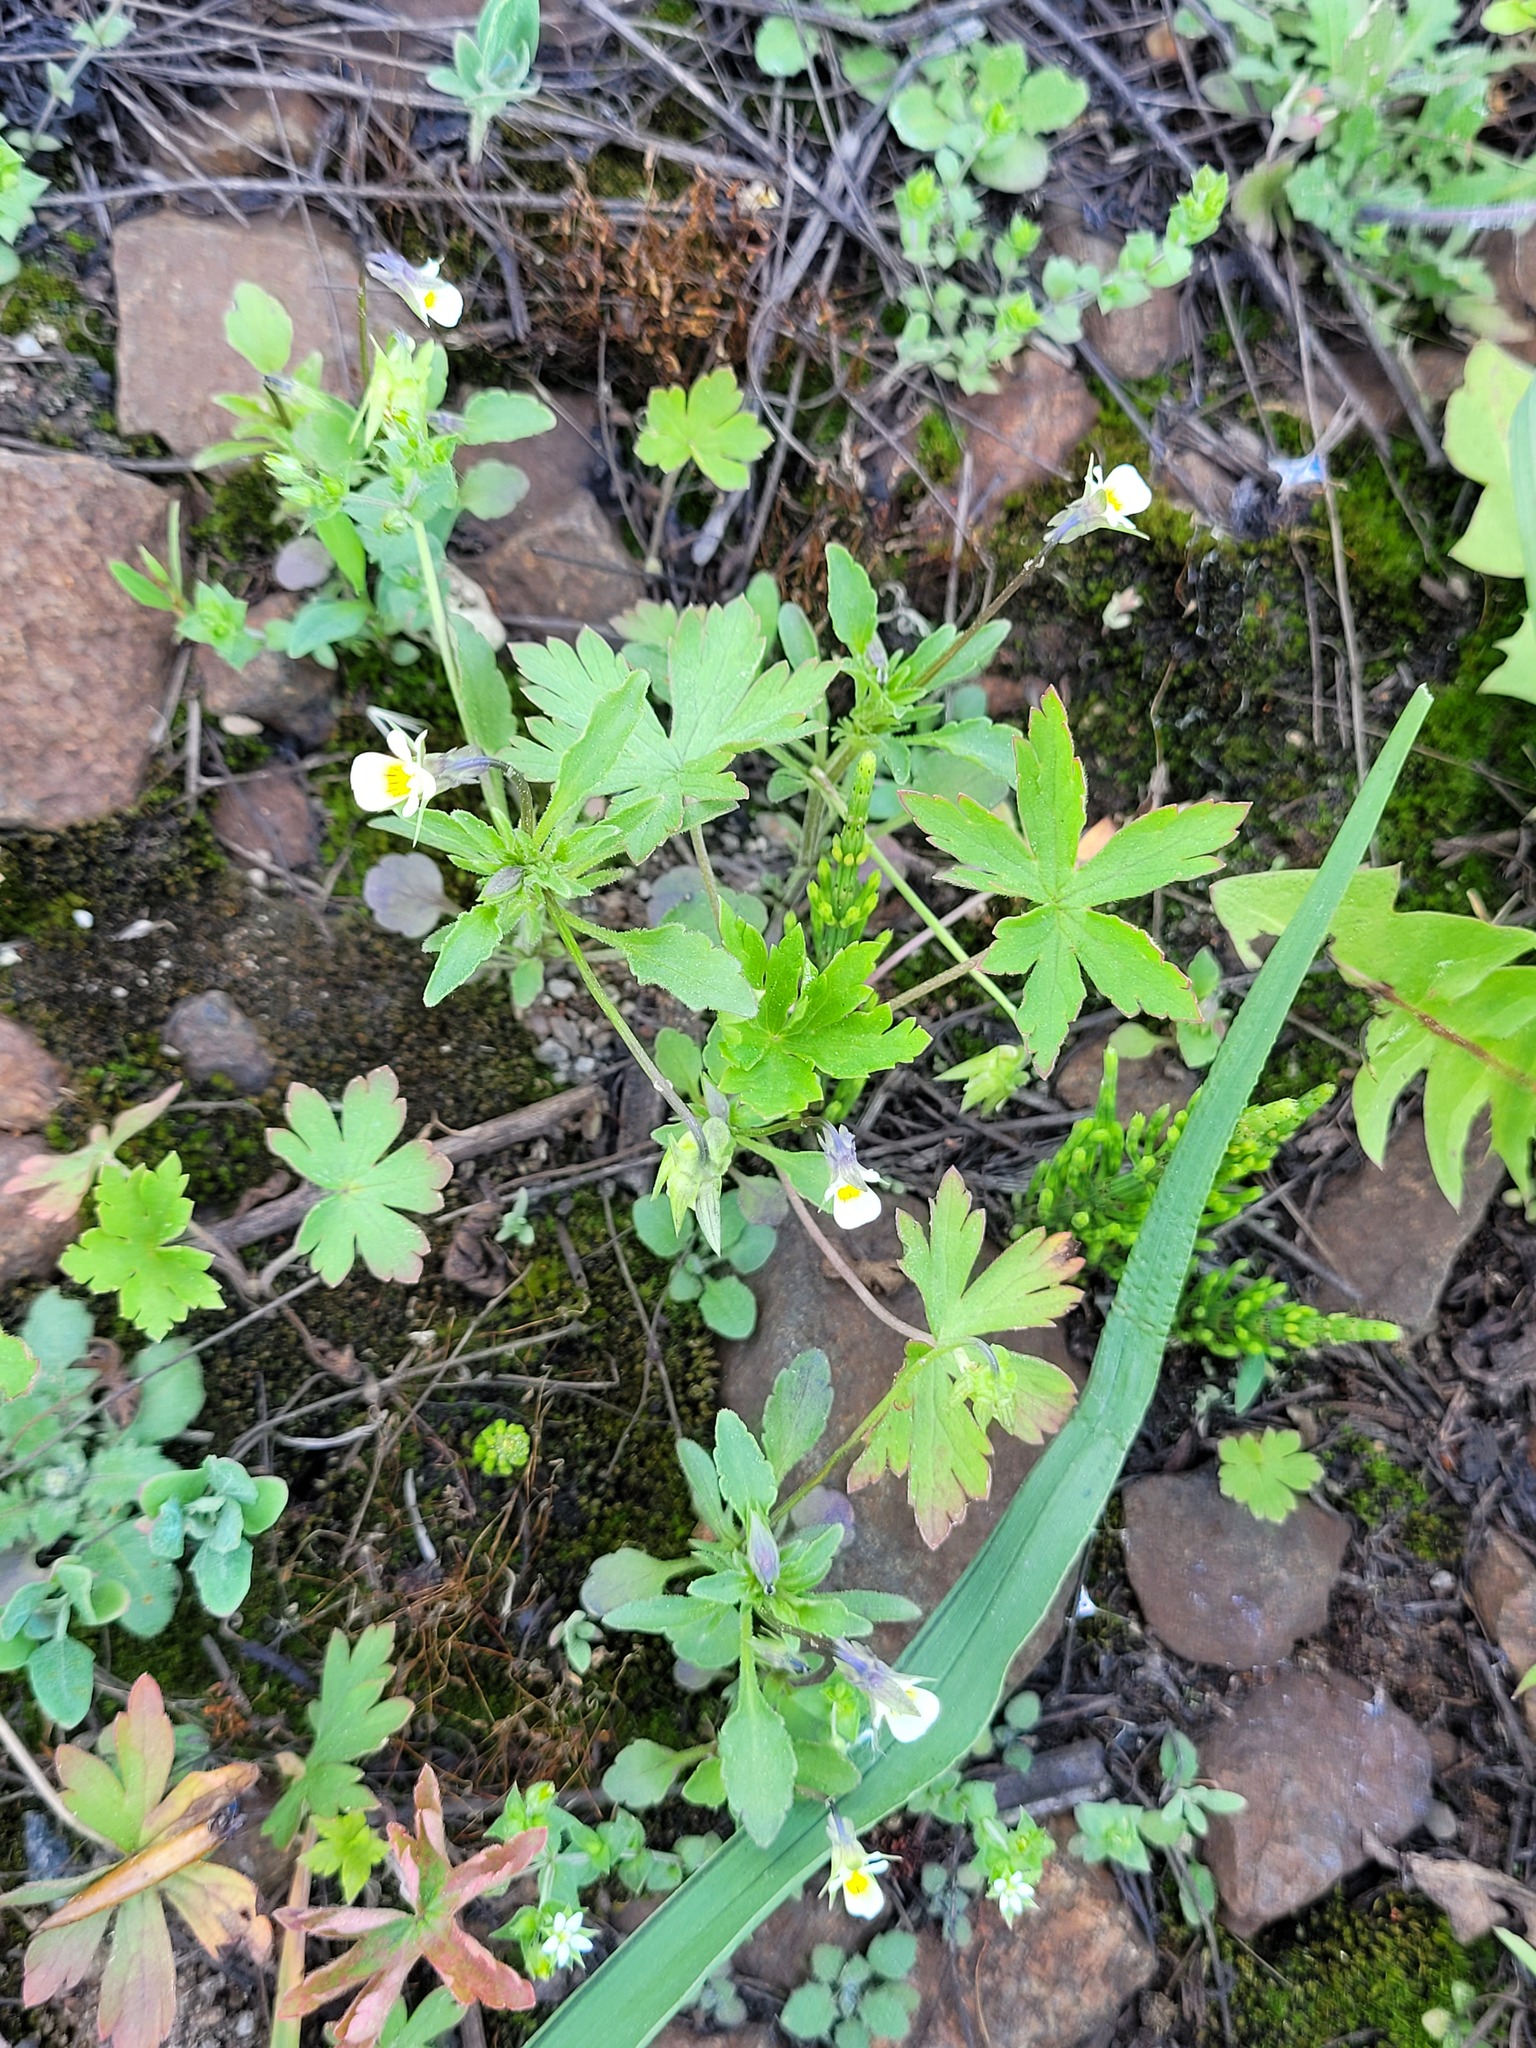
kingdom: Plantae
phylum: Tracheophyta
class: Magnoliopsida
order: Malpighiales
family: Violaceae
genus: Viola
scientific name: Viola arvensis
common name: Field pansy
